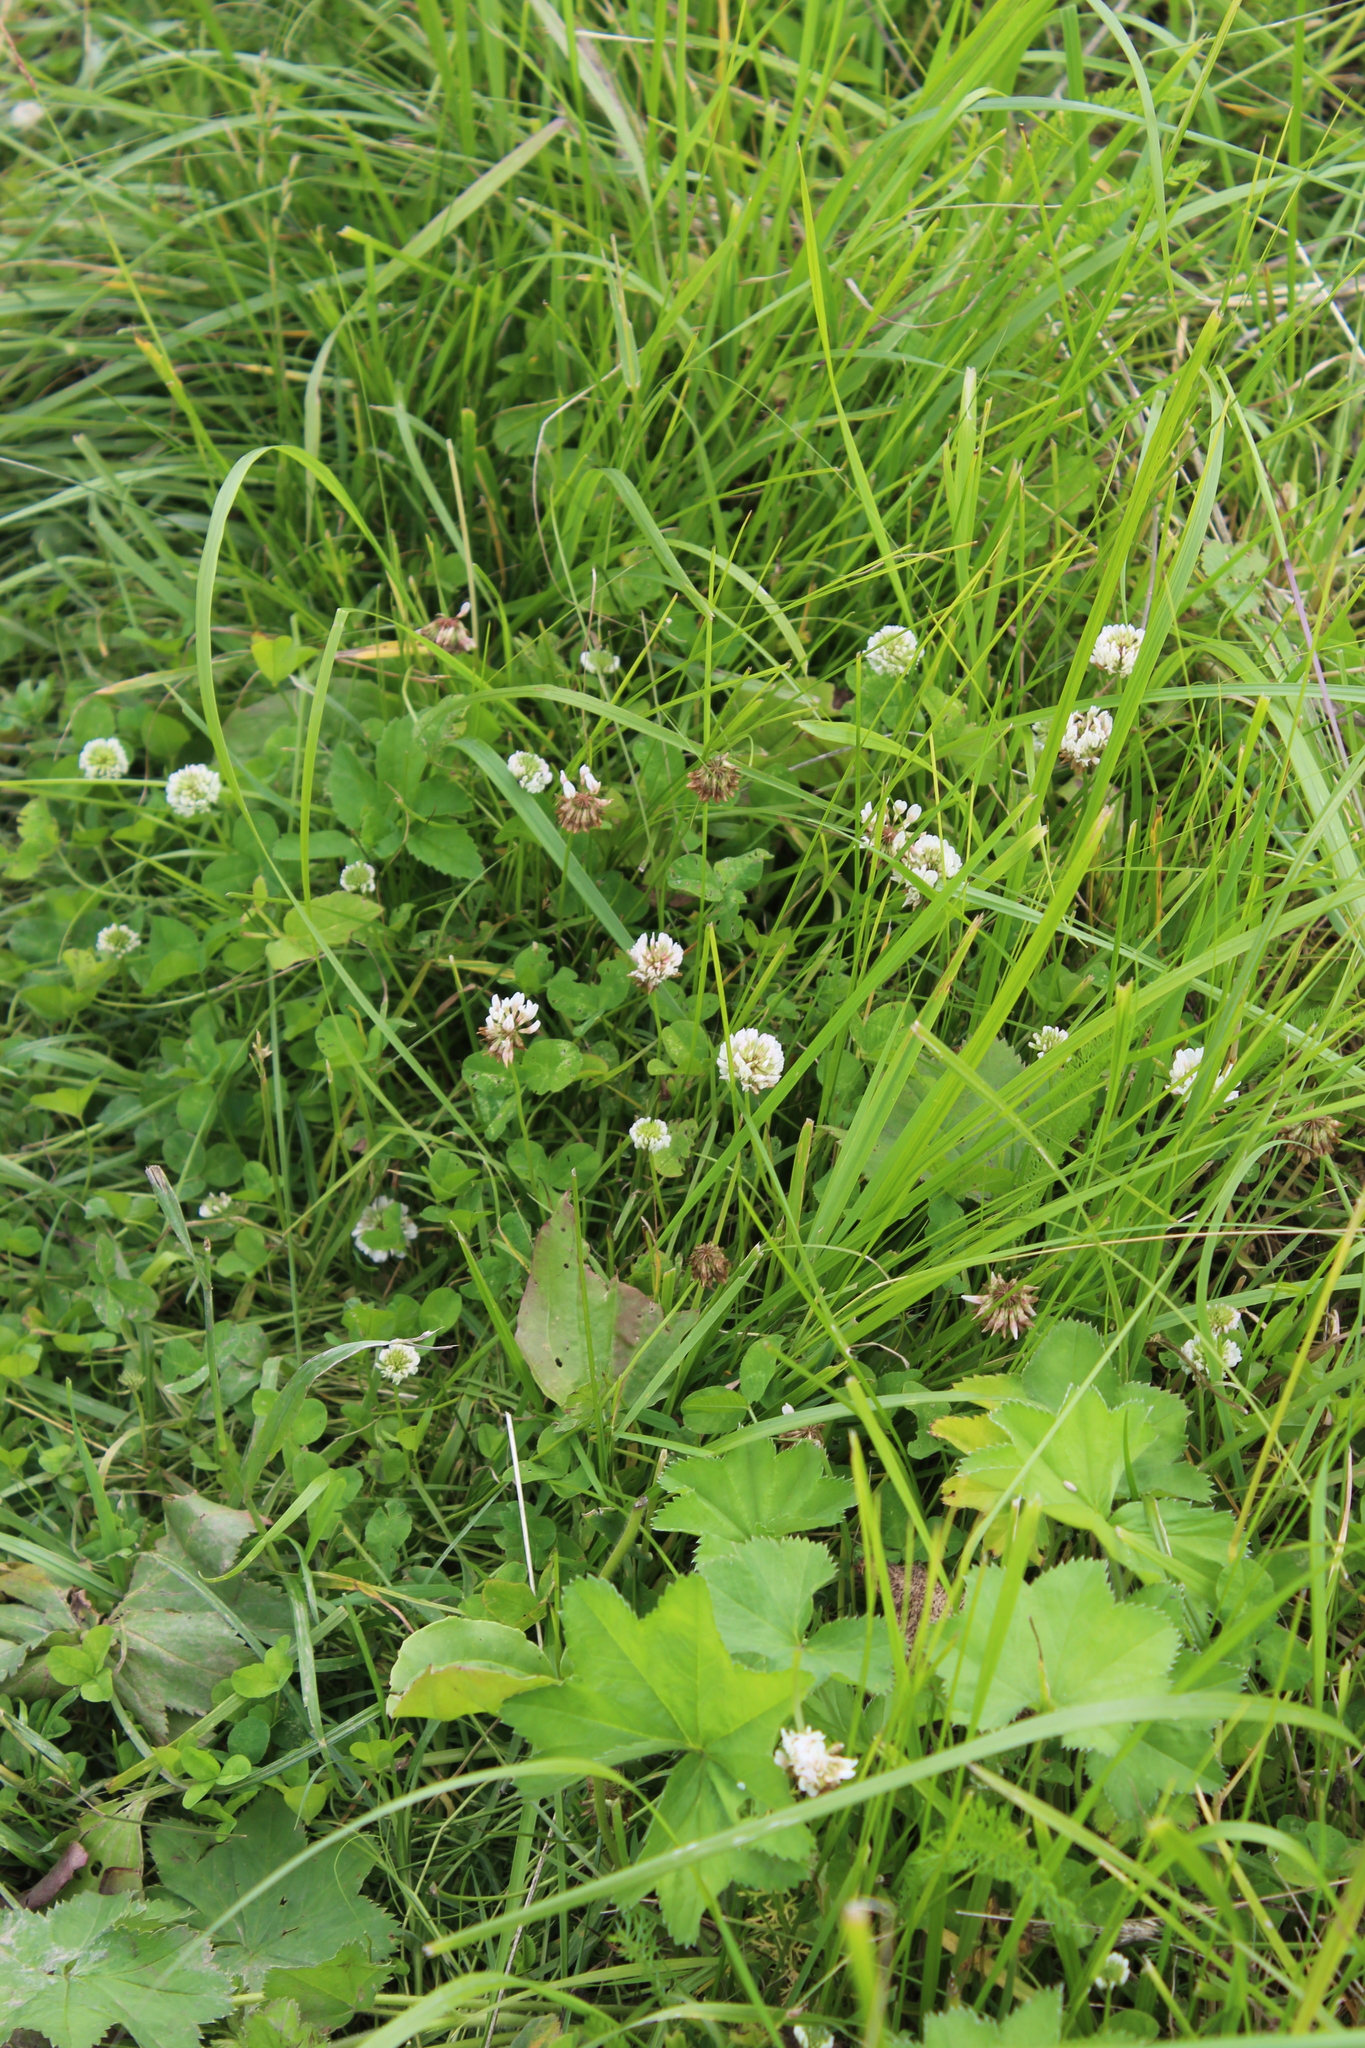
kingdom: Plantae
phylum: Tracheophyta
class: Magnoliopsida
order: Fabales
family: Fabaceae
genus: Trifolium
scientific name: Trifolium repens
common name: White clover
